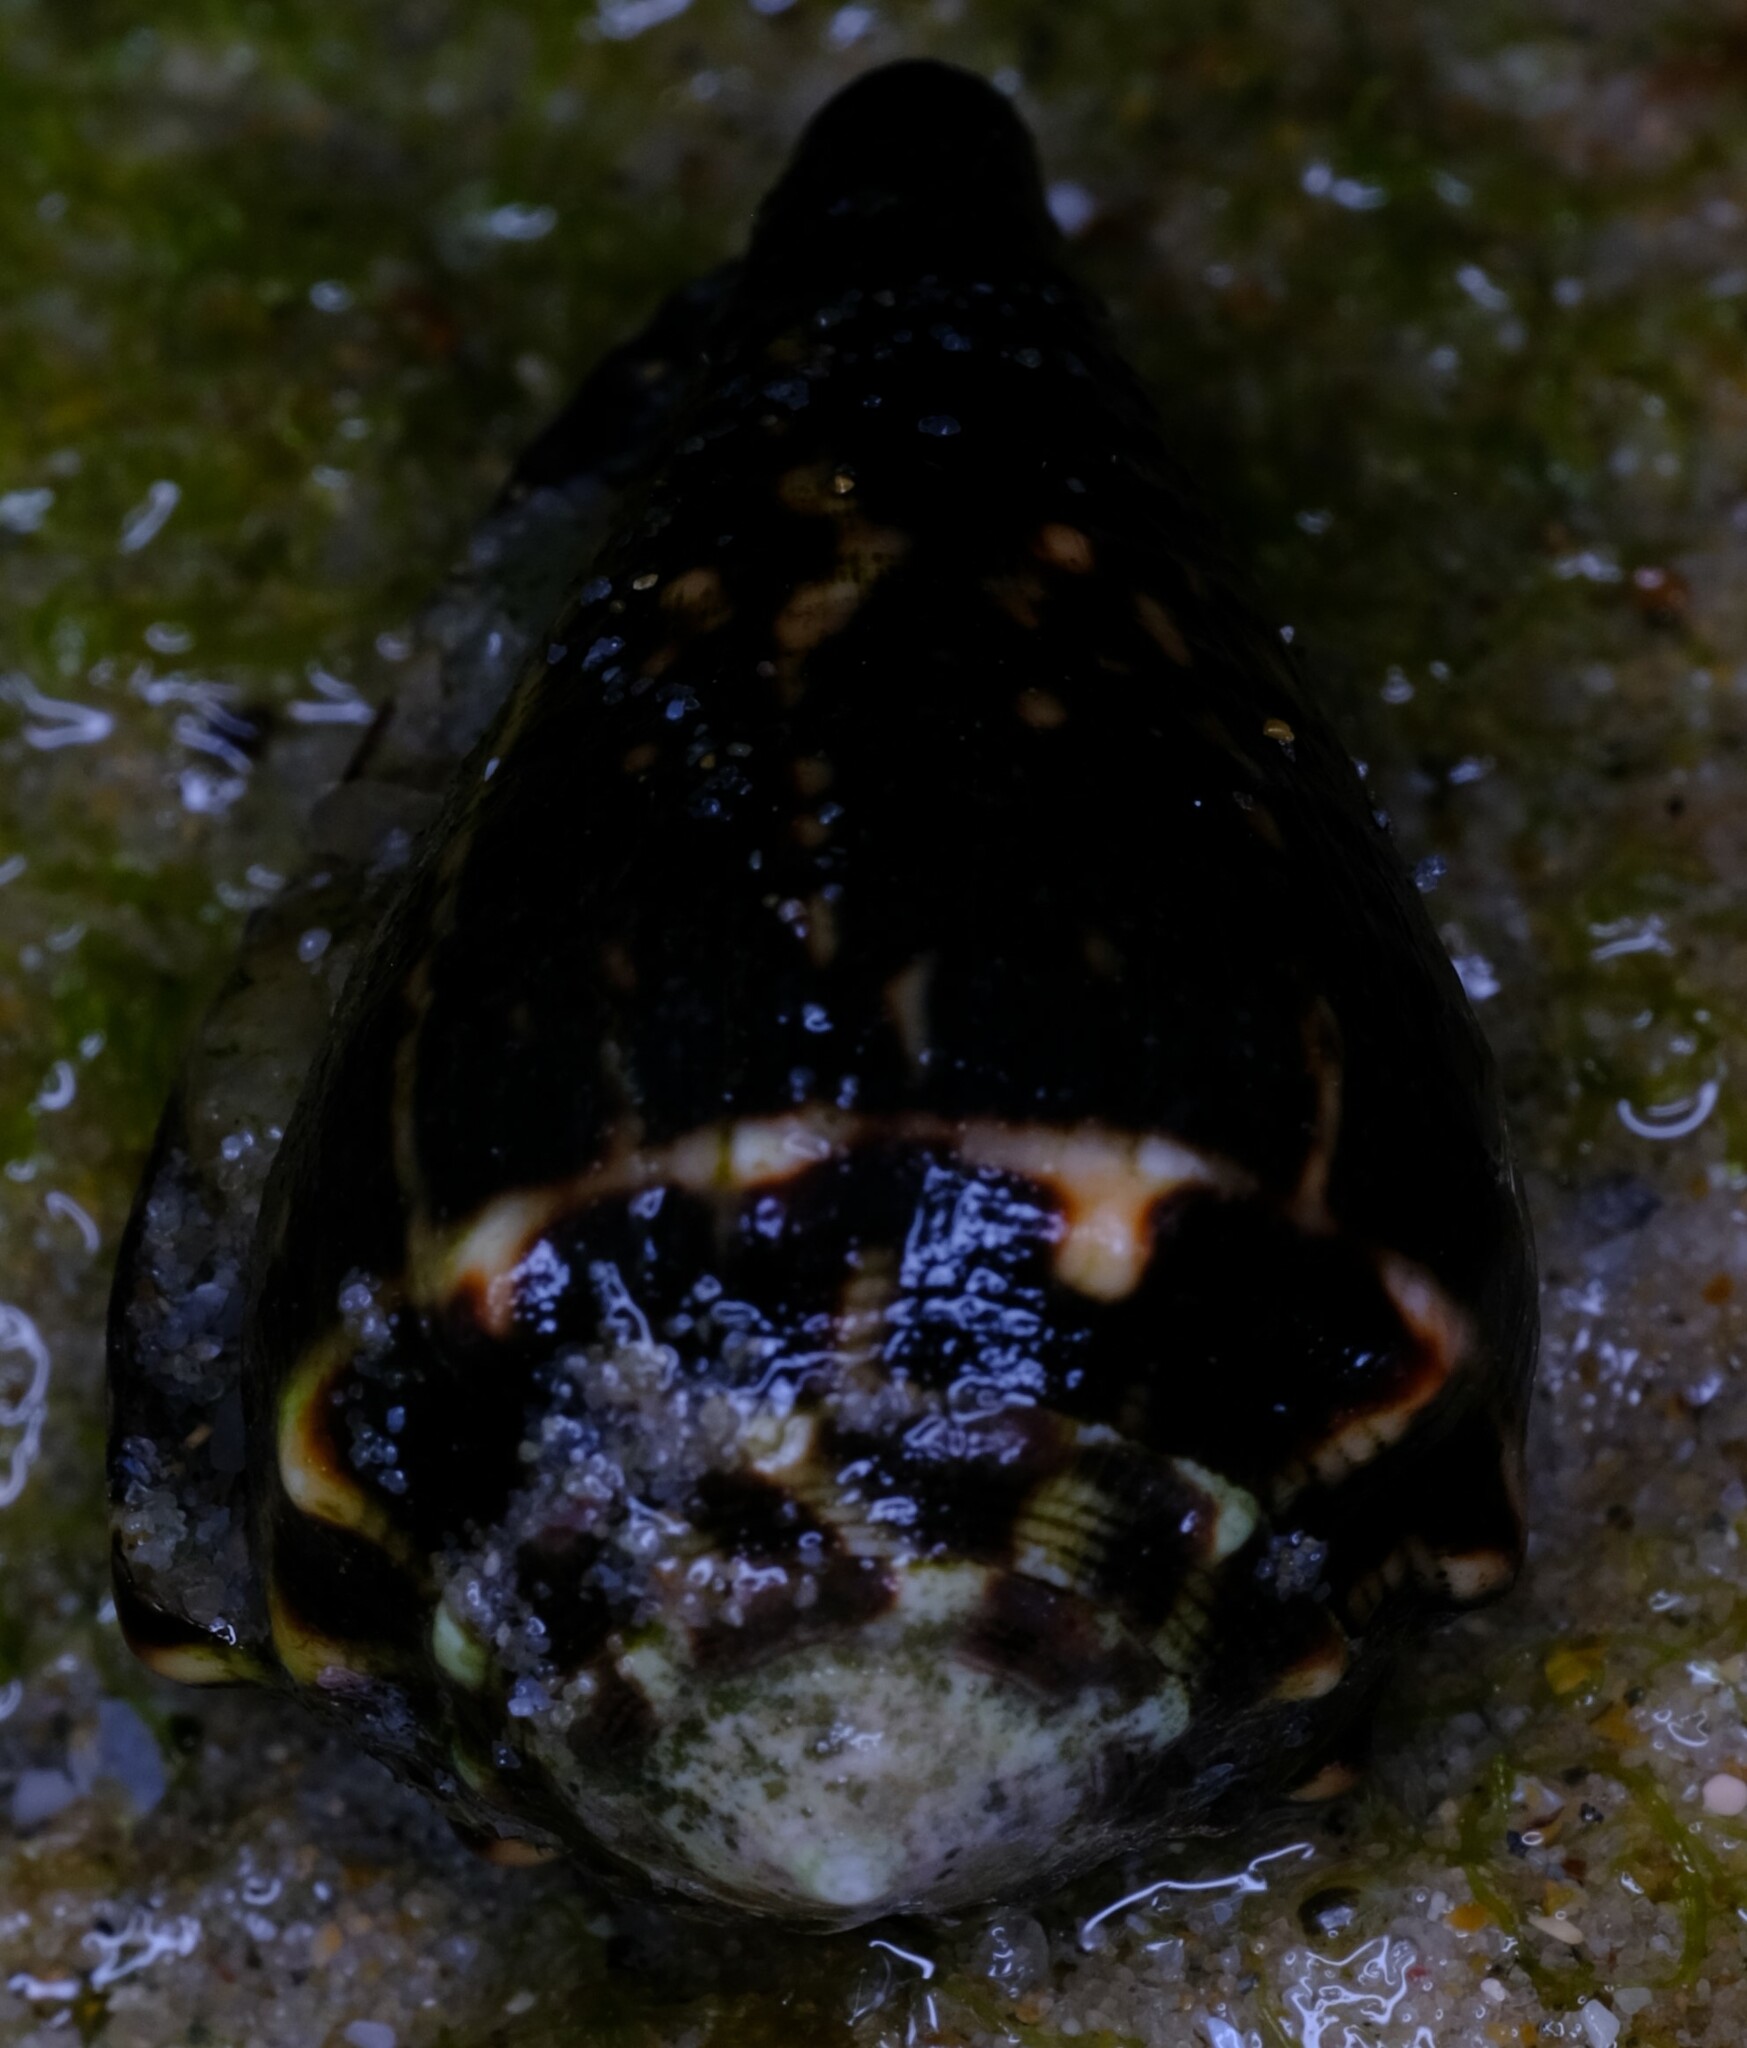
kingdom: Animalia
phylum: Mollusca
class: Gastropoda
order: Neogastropoda
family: Conidae
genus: Conus
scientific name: Conus chaldaeus
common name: Astrologer's cone
